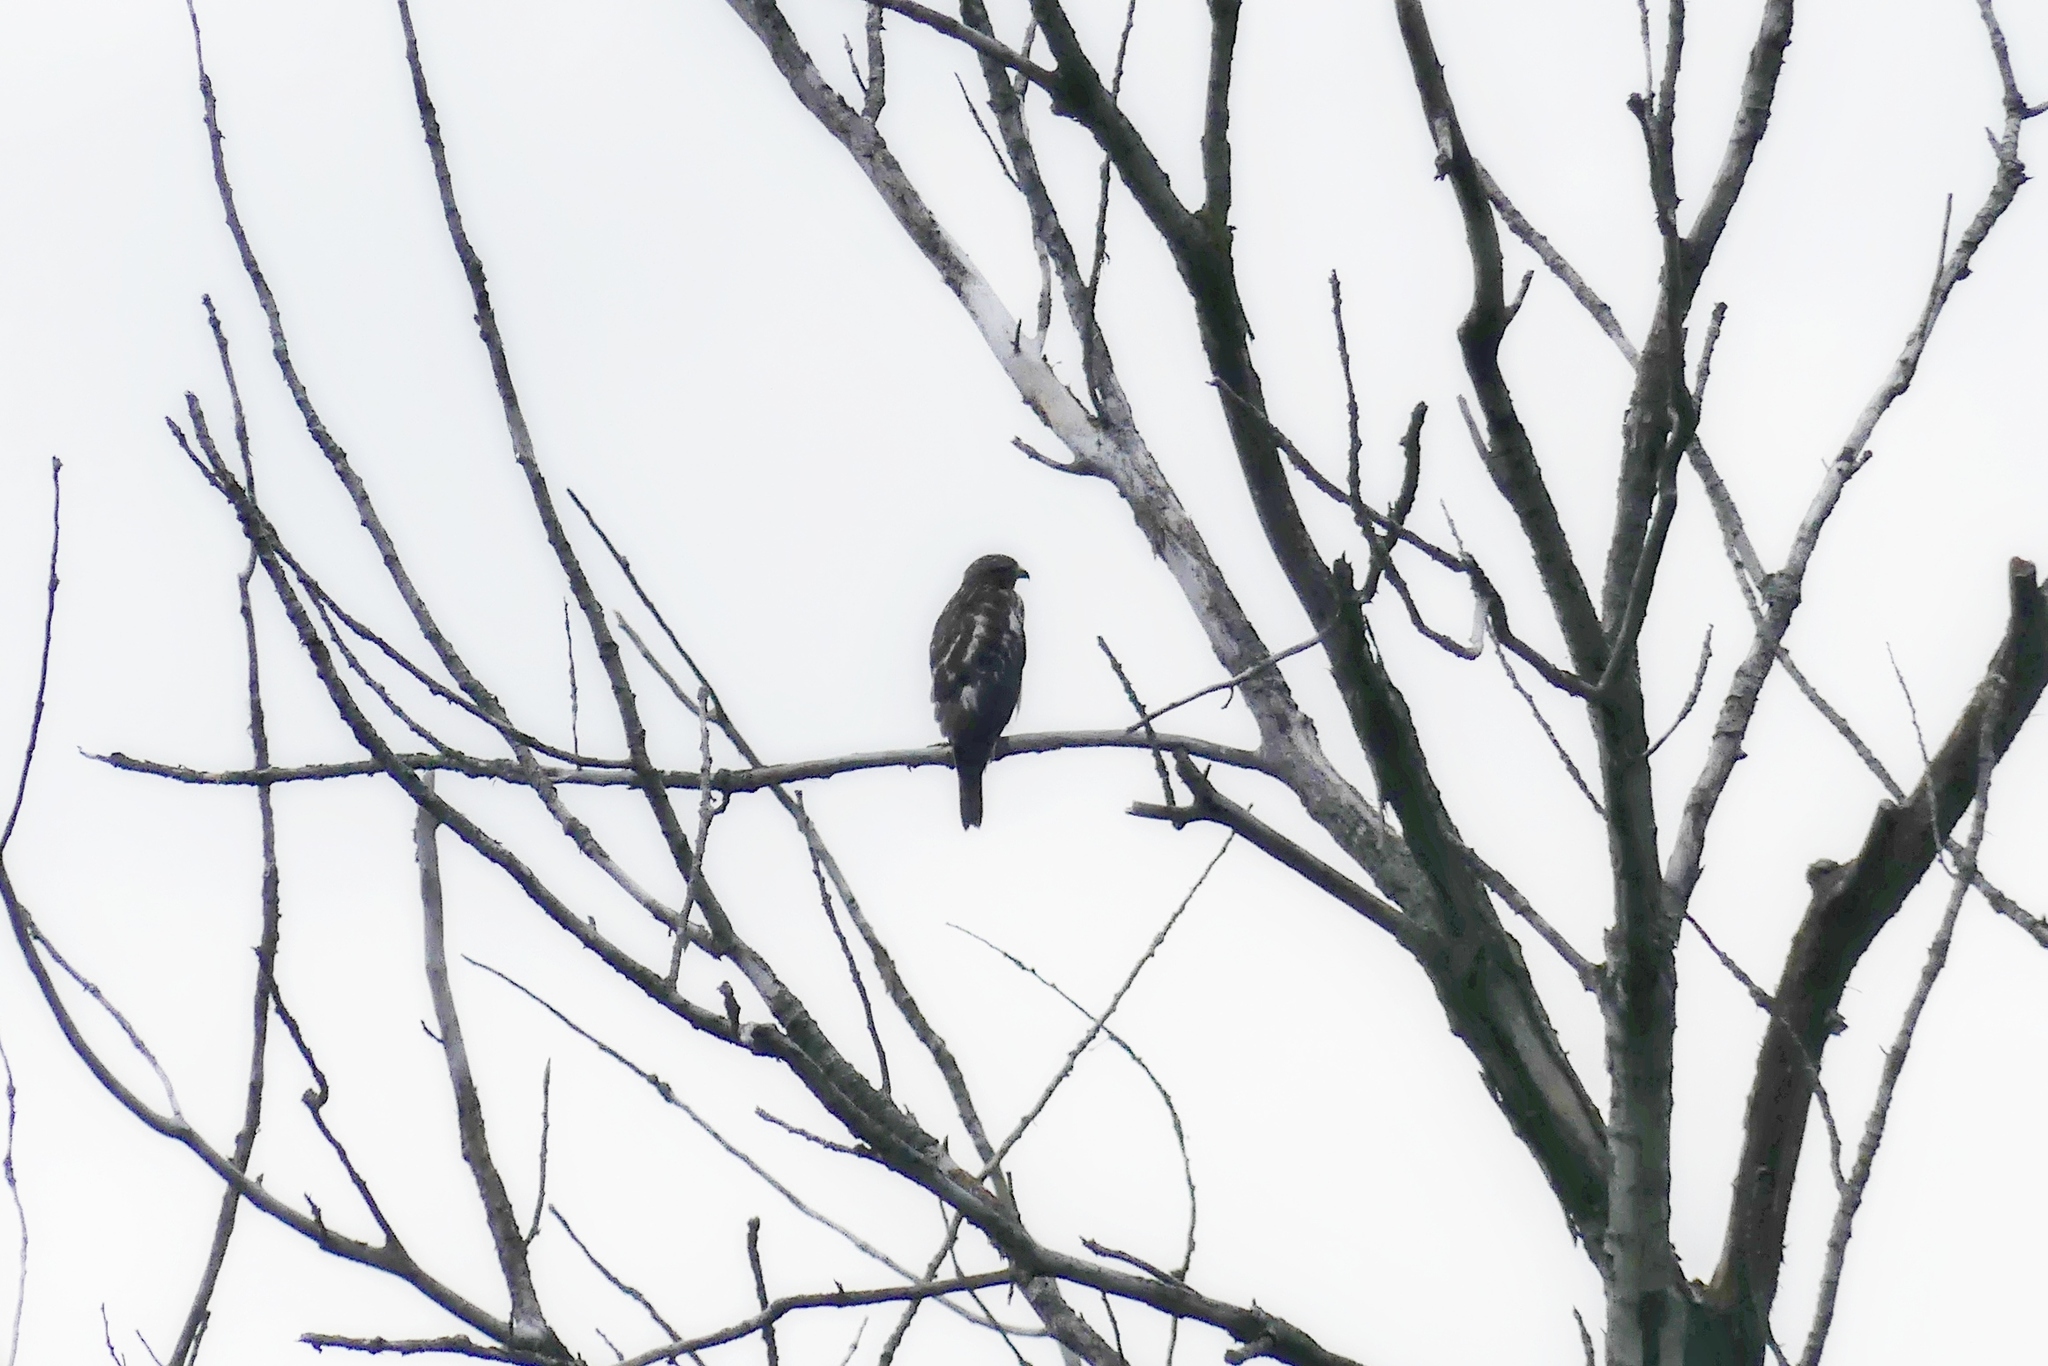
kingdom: Animalia
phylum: Chordata
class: Aves
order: Accipitriformes
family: Accipitridae
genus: Buteo
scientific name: Buteo lineatus
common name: Red-shouldered hawk
